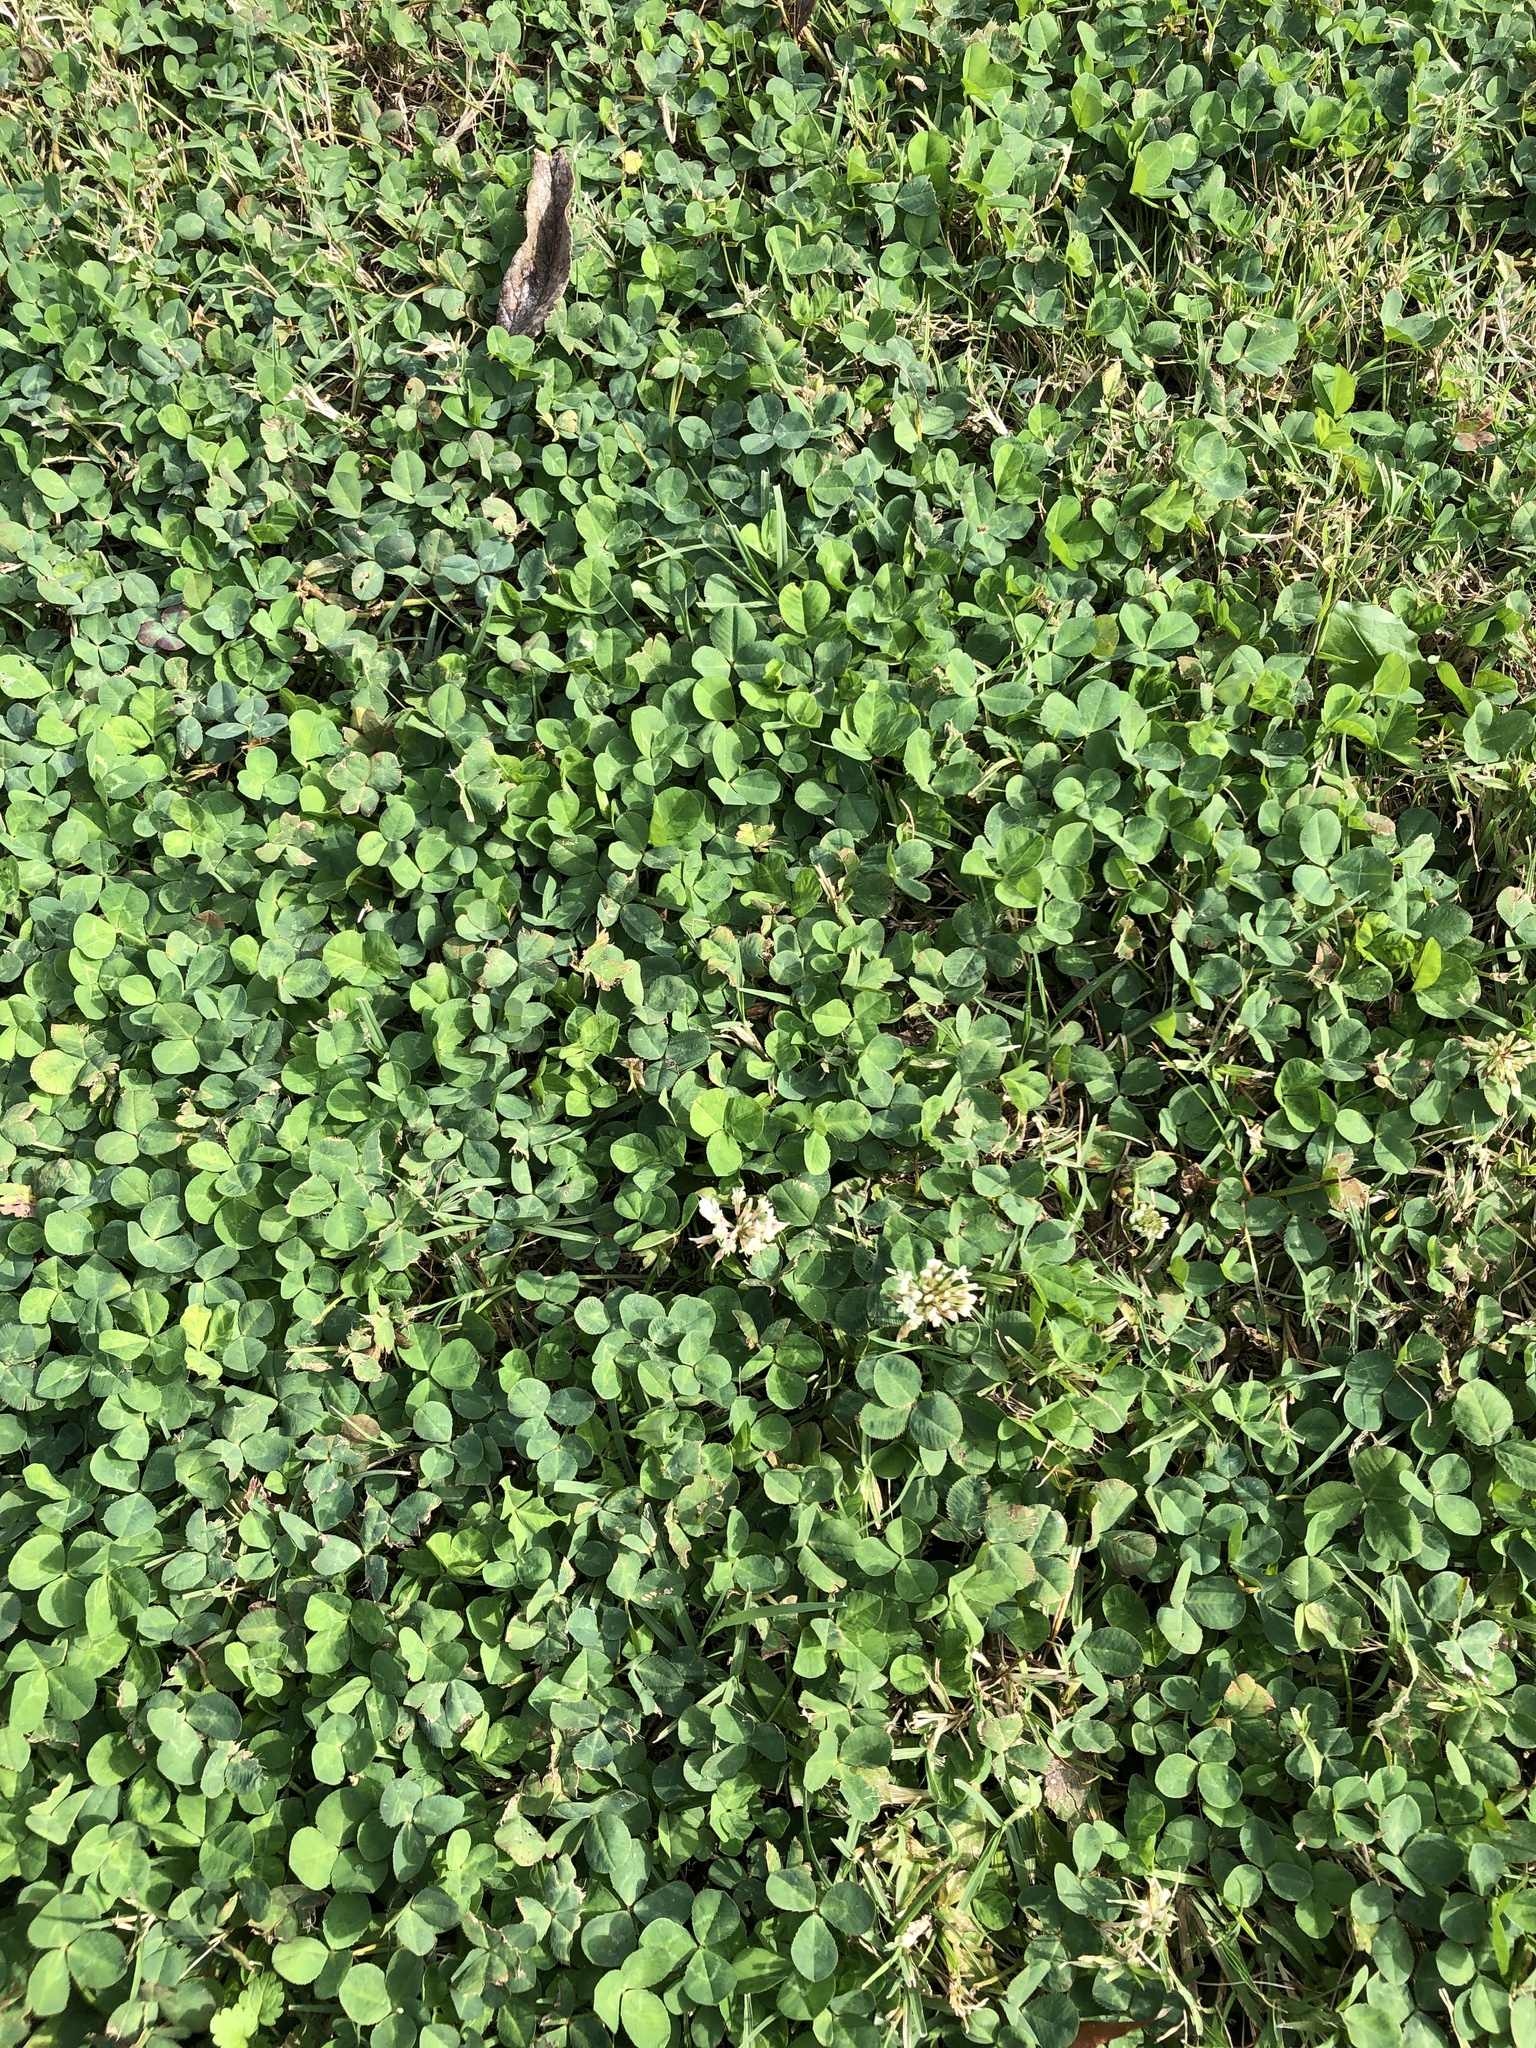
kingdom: Plantae
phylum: Tracheophyta
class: Magnoliopsida
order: Fabales
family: Fabaceae
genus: Trifolium
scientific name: Trifolium repens
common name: White clover
